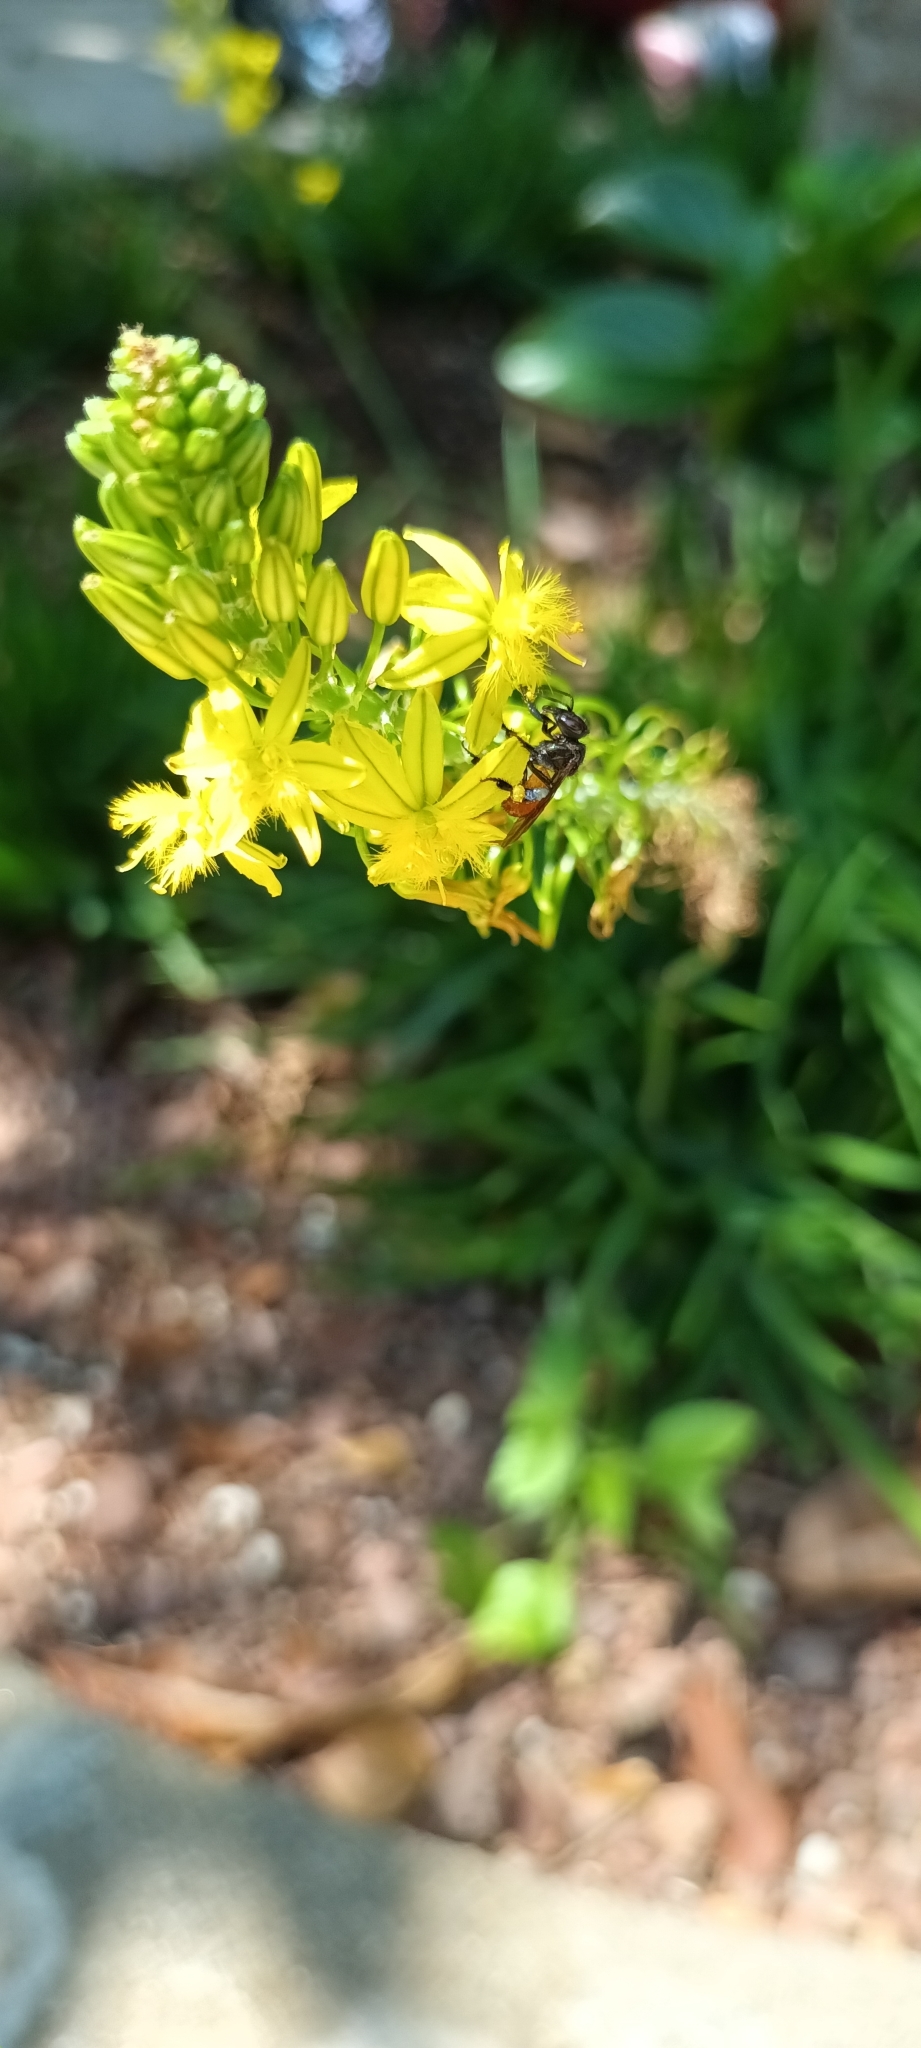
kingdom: Animalia
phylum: Arthropoda
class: Insecta
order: Hymenoptera
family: Apidae
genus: Trigona
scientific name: Trigona fulviventris
